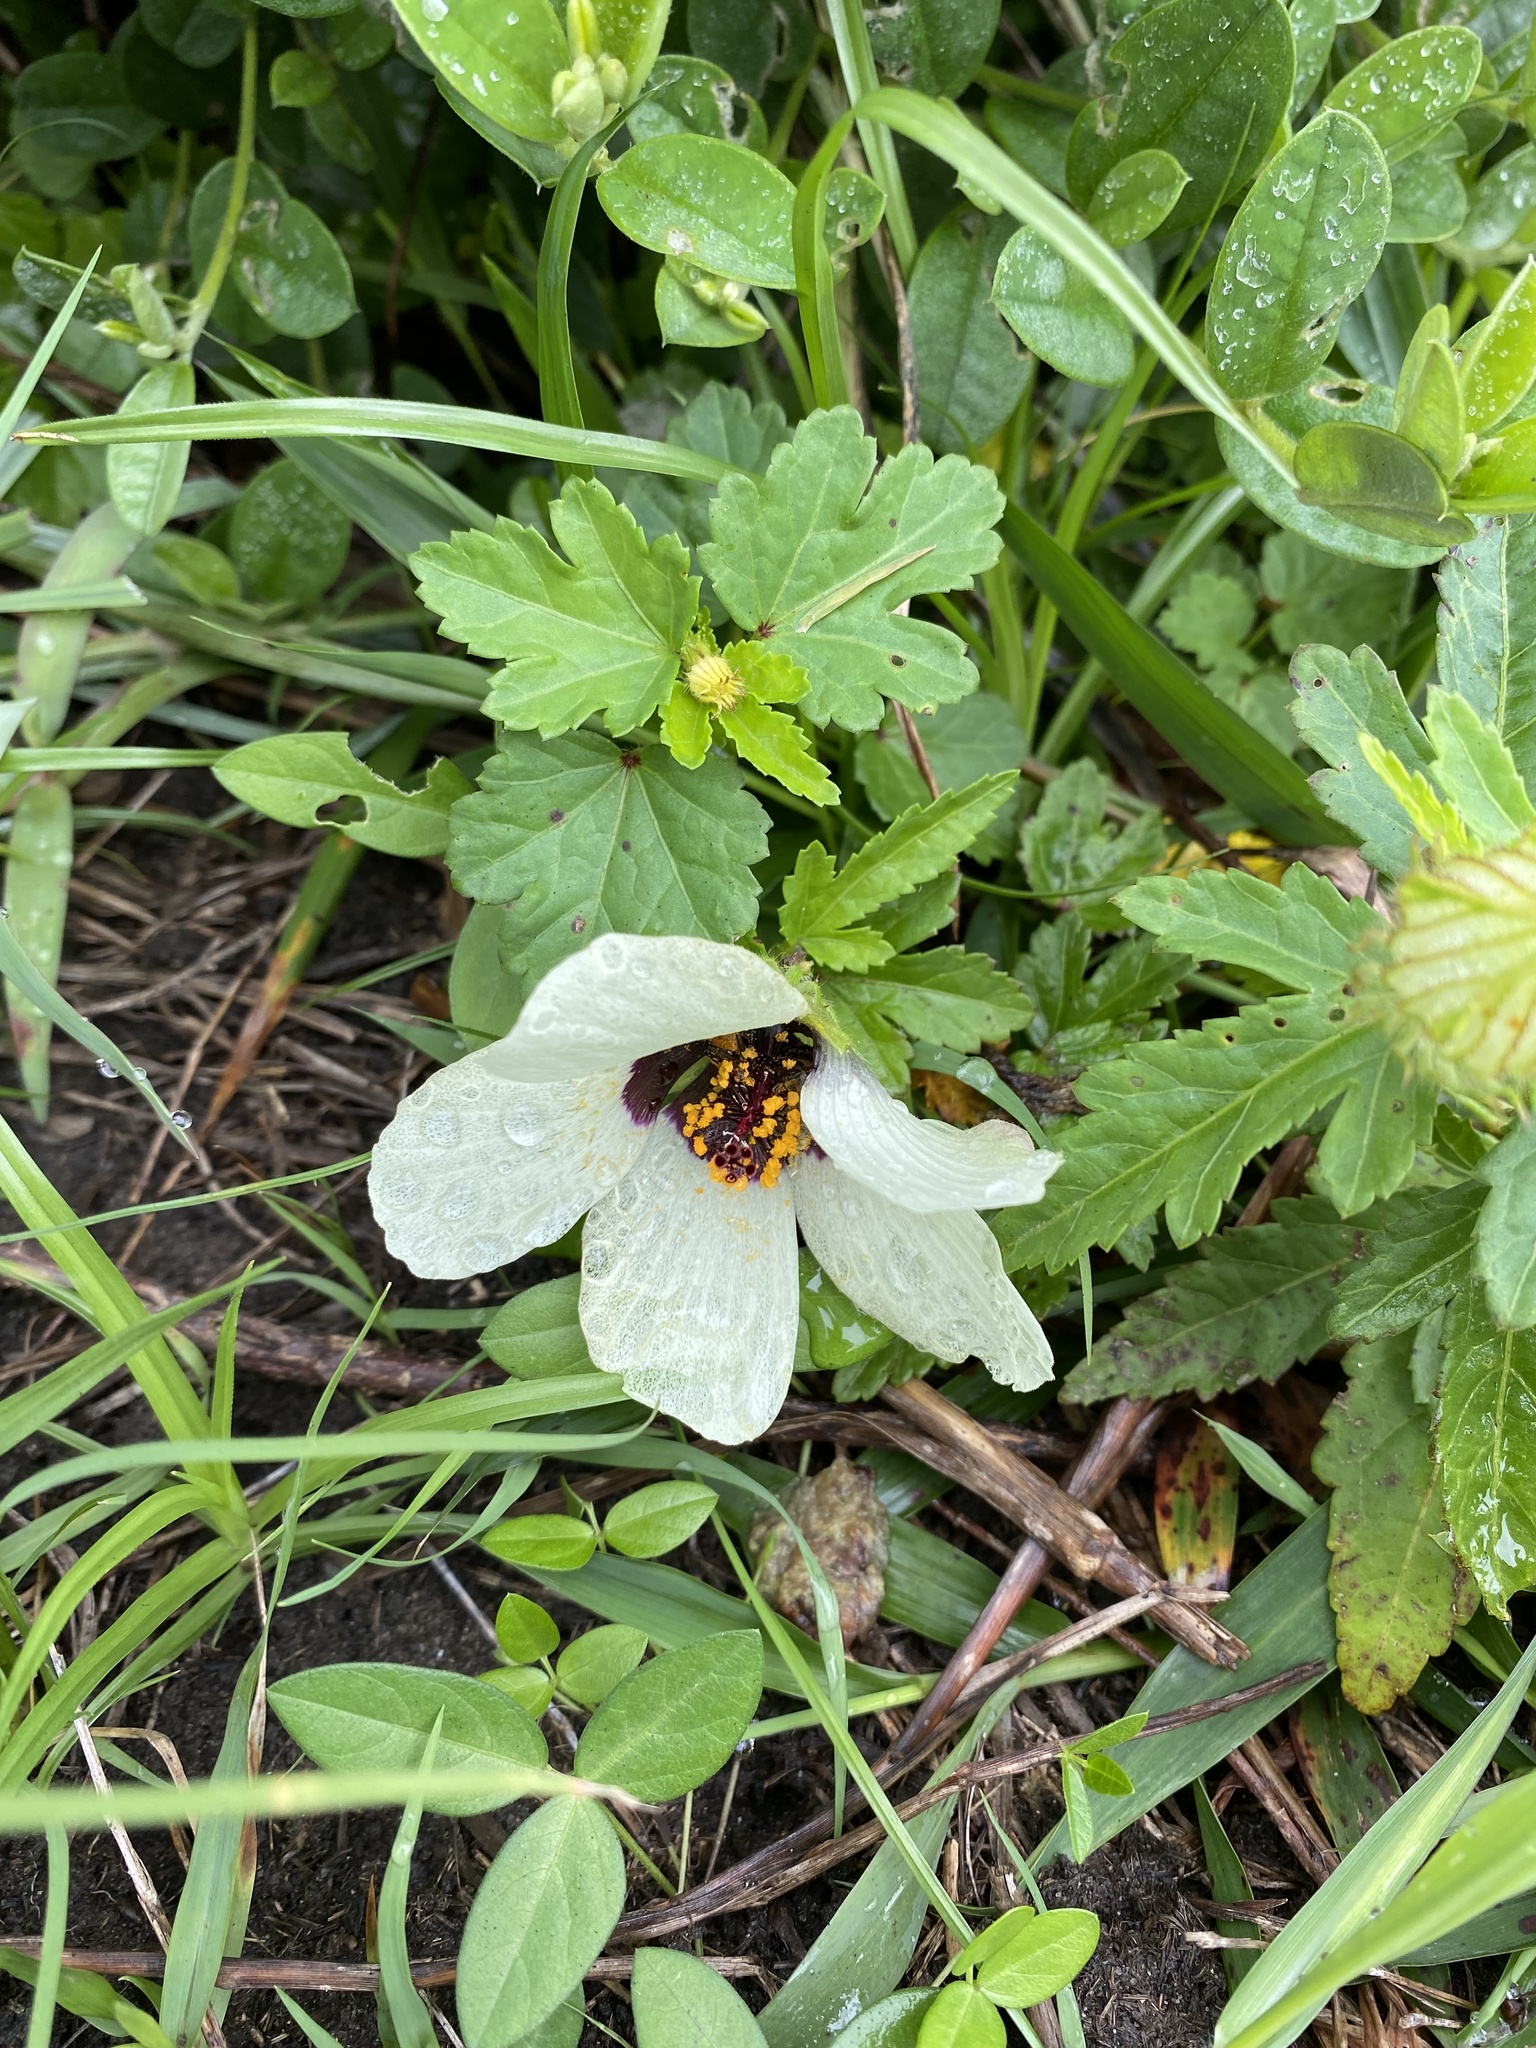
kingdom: Plantae
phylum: Tracheophyta
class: Magnoliopsida
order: Malvales
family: Malvaceae
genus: Hibiscus
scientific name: Hibiscus trionum
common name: Bladder ketmia
